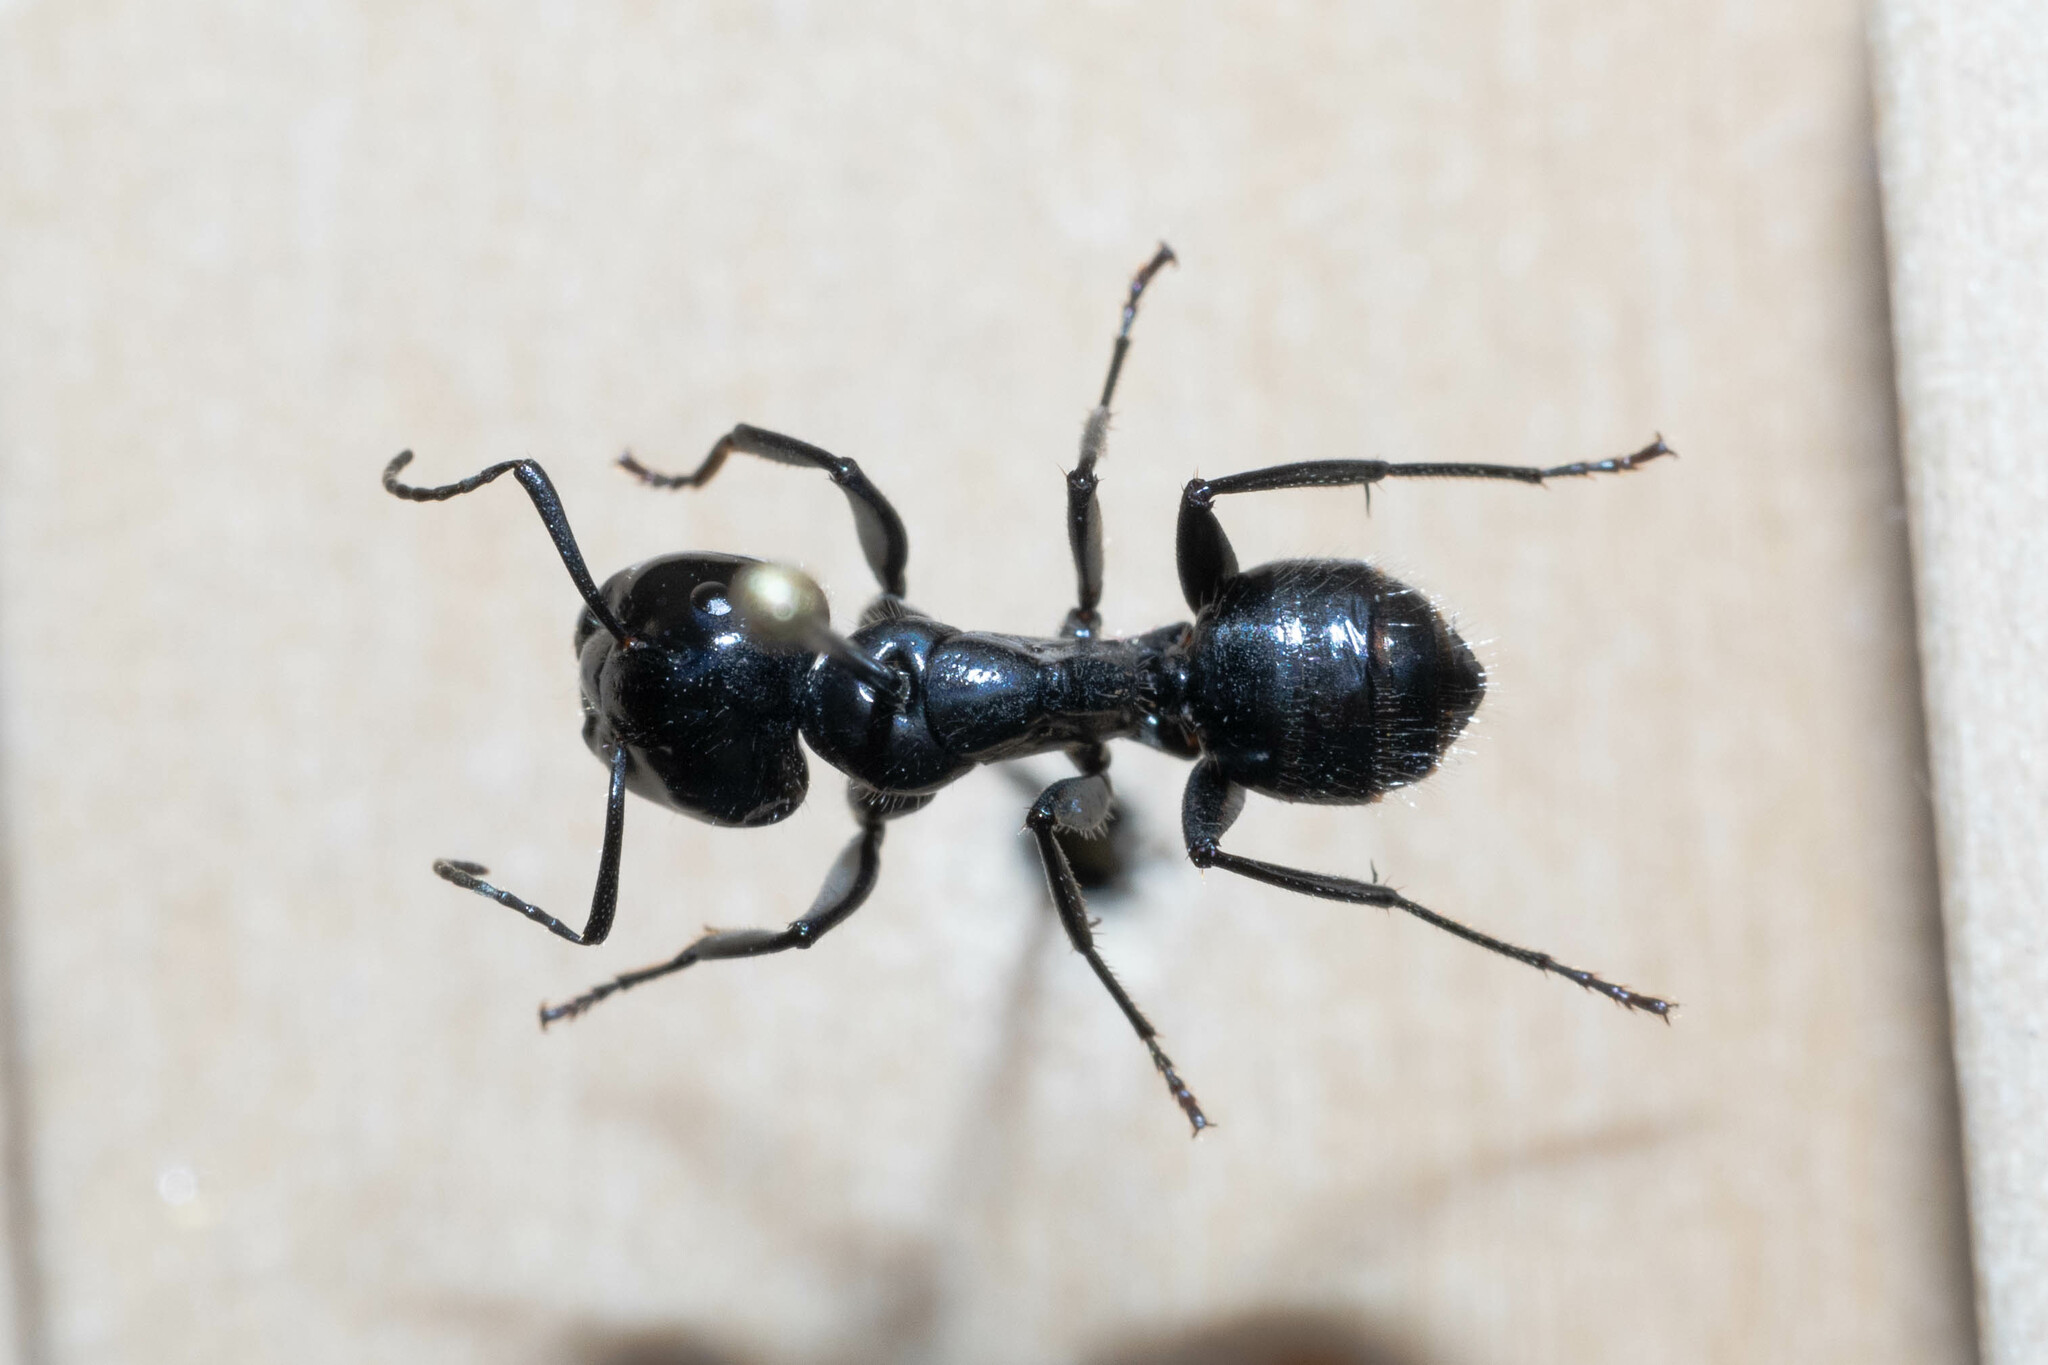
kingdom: Animalia
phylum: Arthropoda
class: Insecta
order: Hymenoptera
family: Formicidae
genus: Camponotus
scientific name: Camponotus
